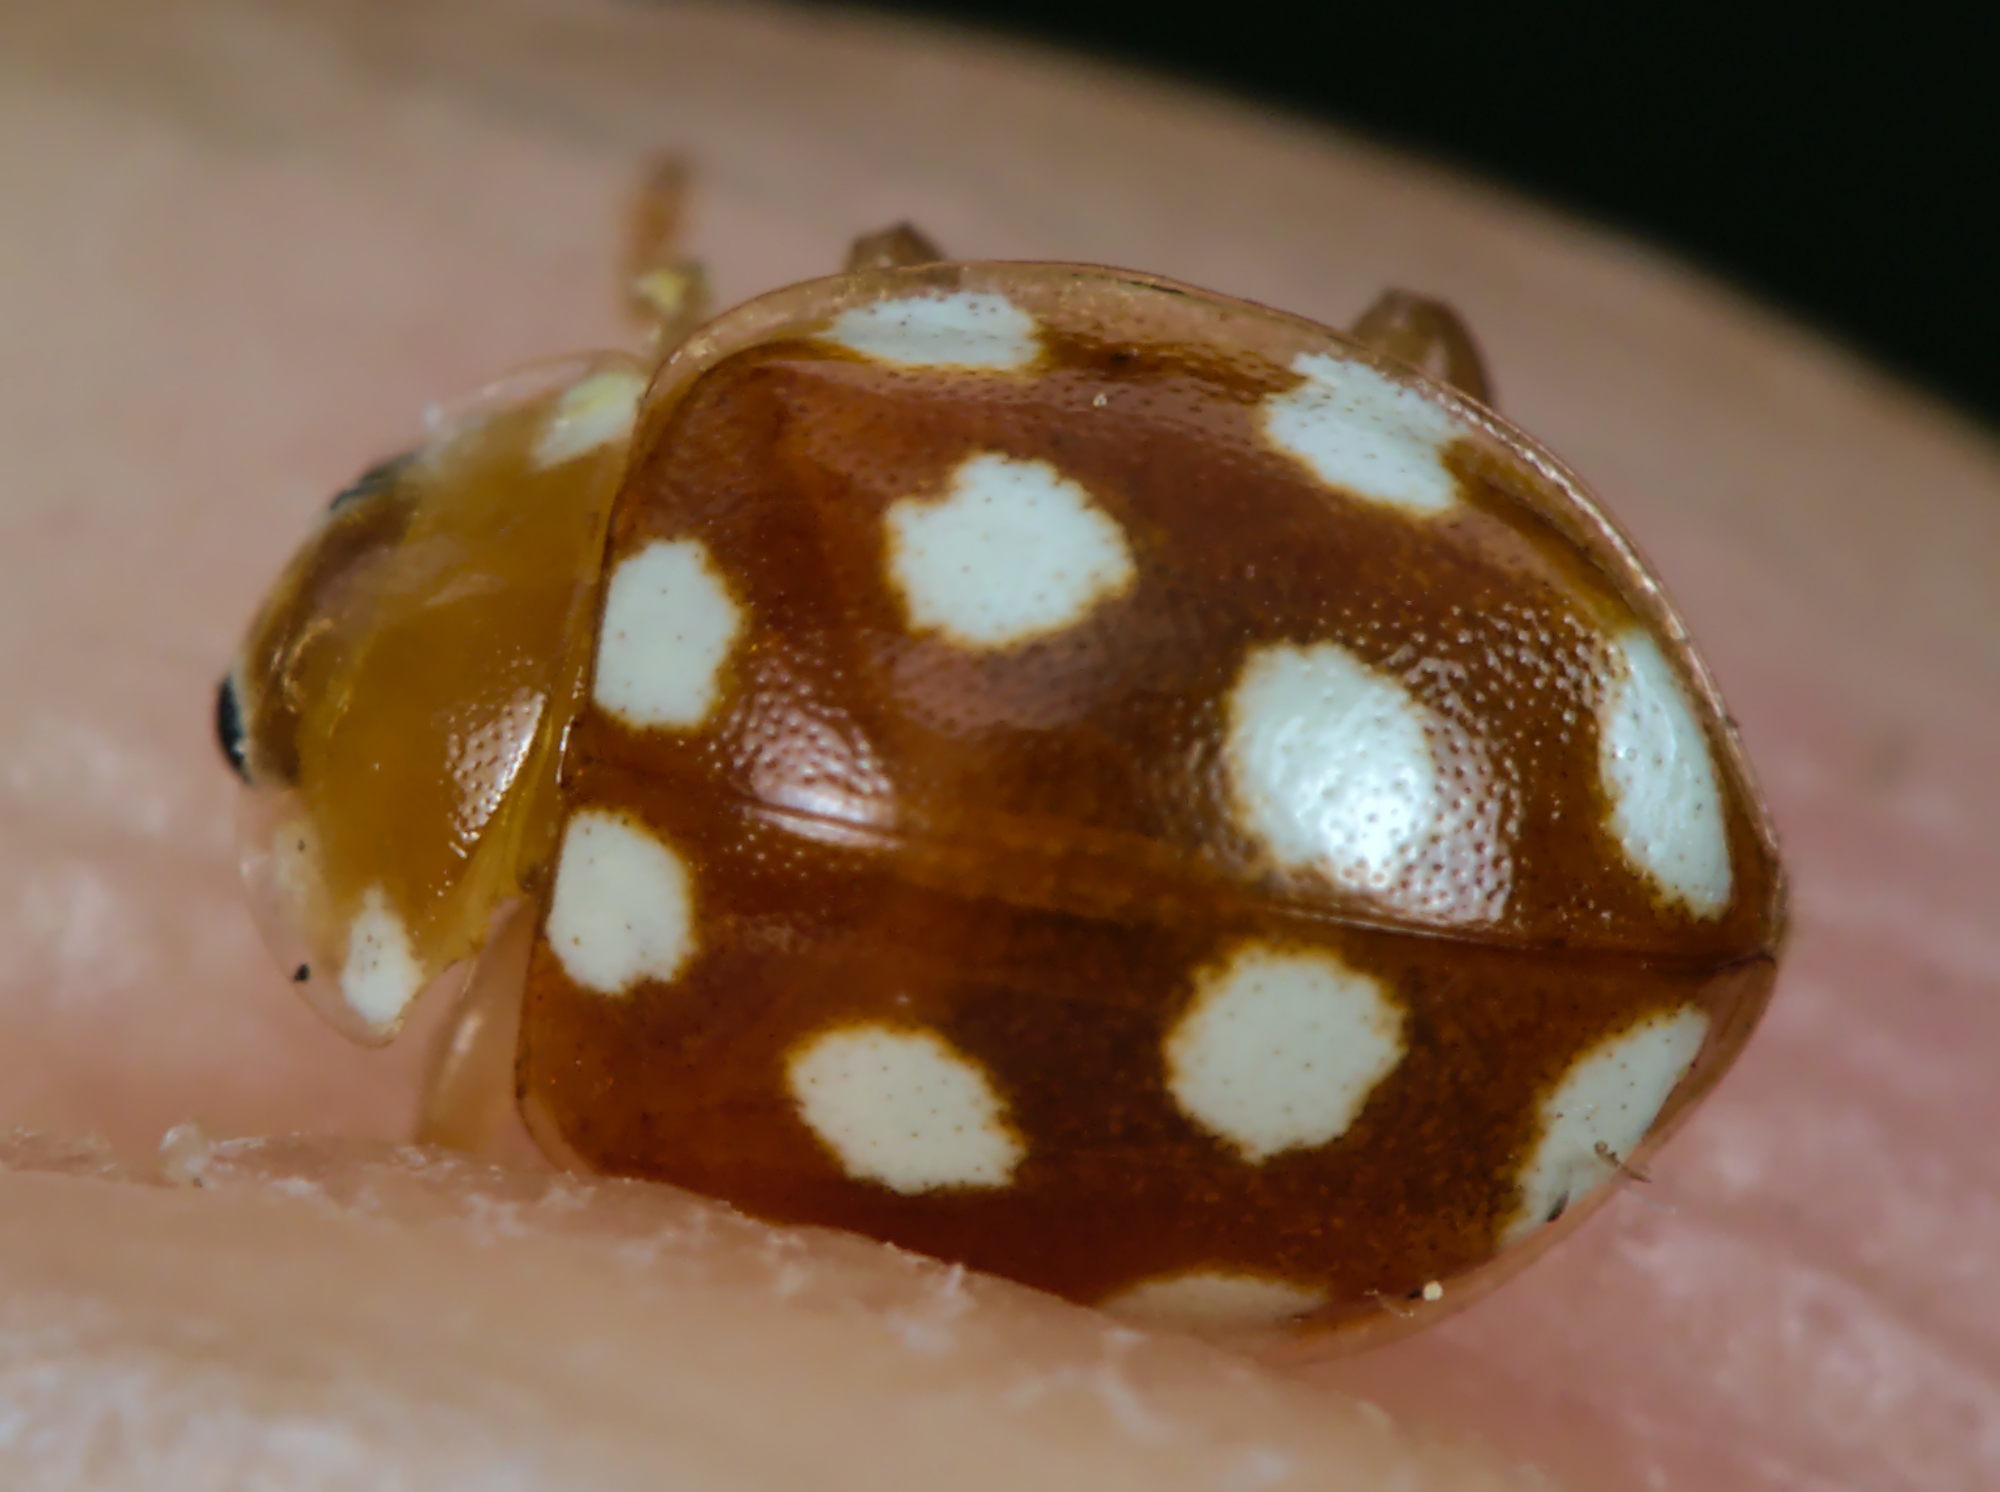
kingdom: Animalia
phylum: Arthropoda
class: Insecta
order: Coleoptera
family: Coccinellidae
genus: Vibidia
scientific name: Vibidia duodecimguttata
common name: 12-spot ladybird
